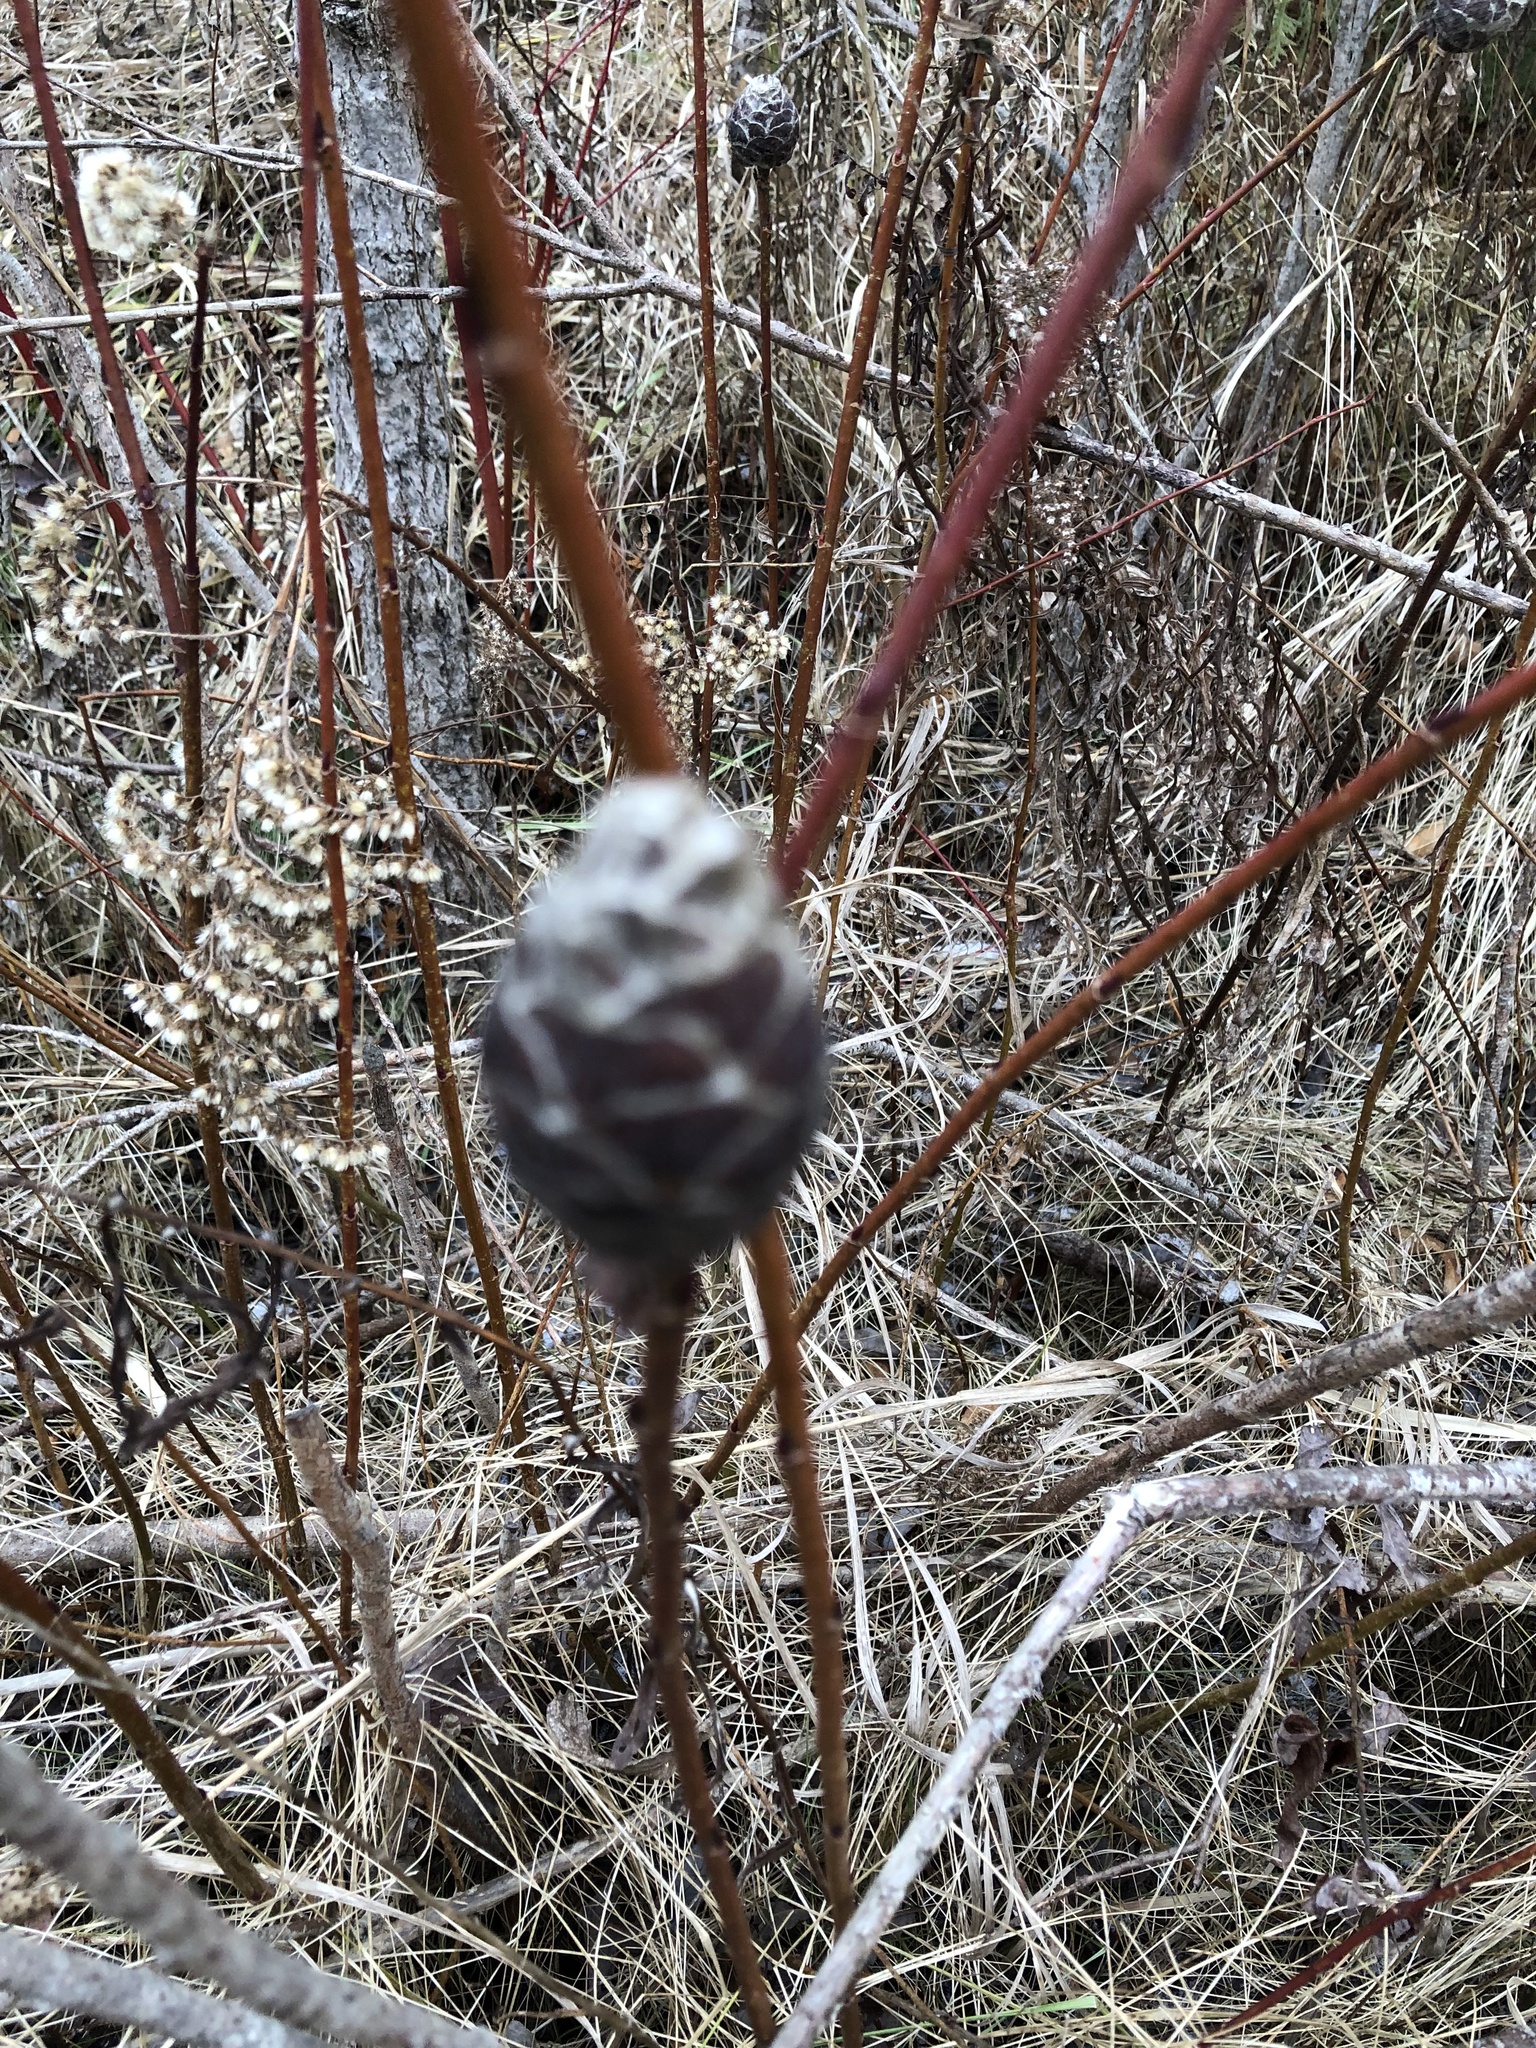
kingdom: Animalia
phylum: Arthropoda
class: Insecta
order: Diptera
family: Cecidomyiidae
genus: Rabdophaga
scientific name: Rabdophaga strobiloides
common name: Willow pinecone gall midge
